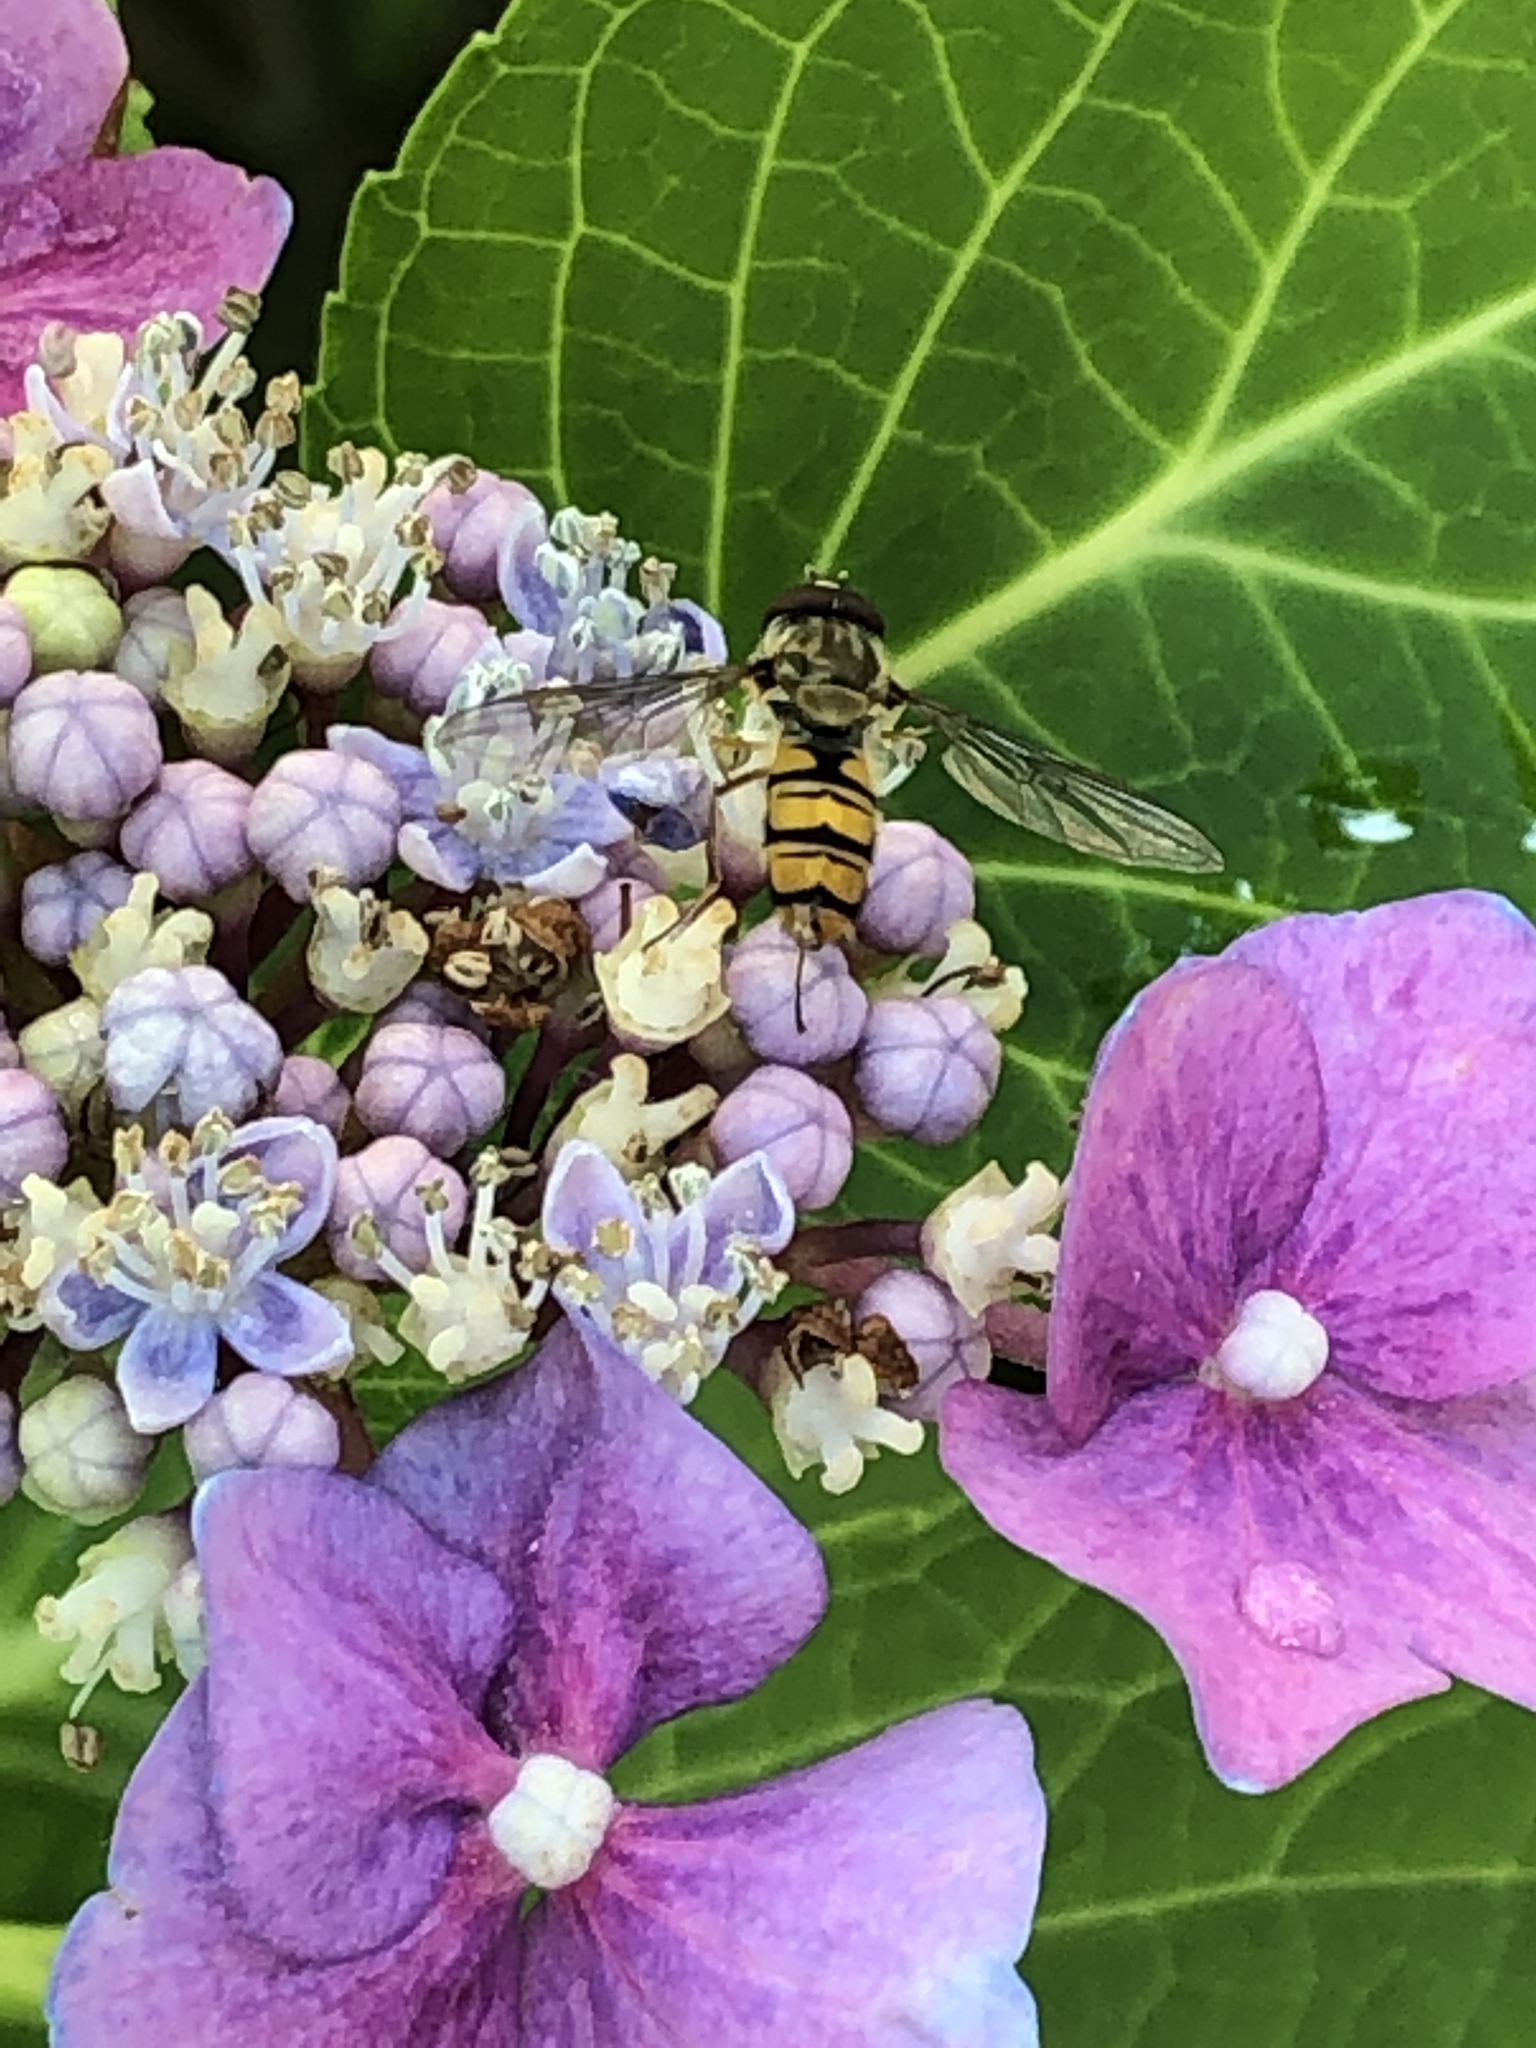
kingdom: Animalia
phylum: Arthropoda
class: Insecta
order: Diptera
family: Syrphidae
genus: Episyrphus
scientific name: Episyrphus balteatus
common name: Marmalade hoverfly
